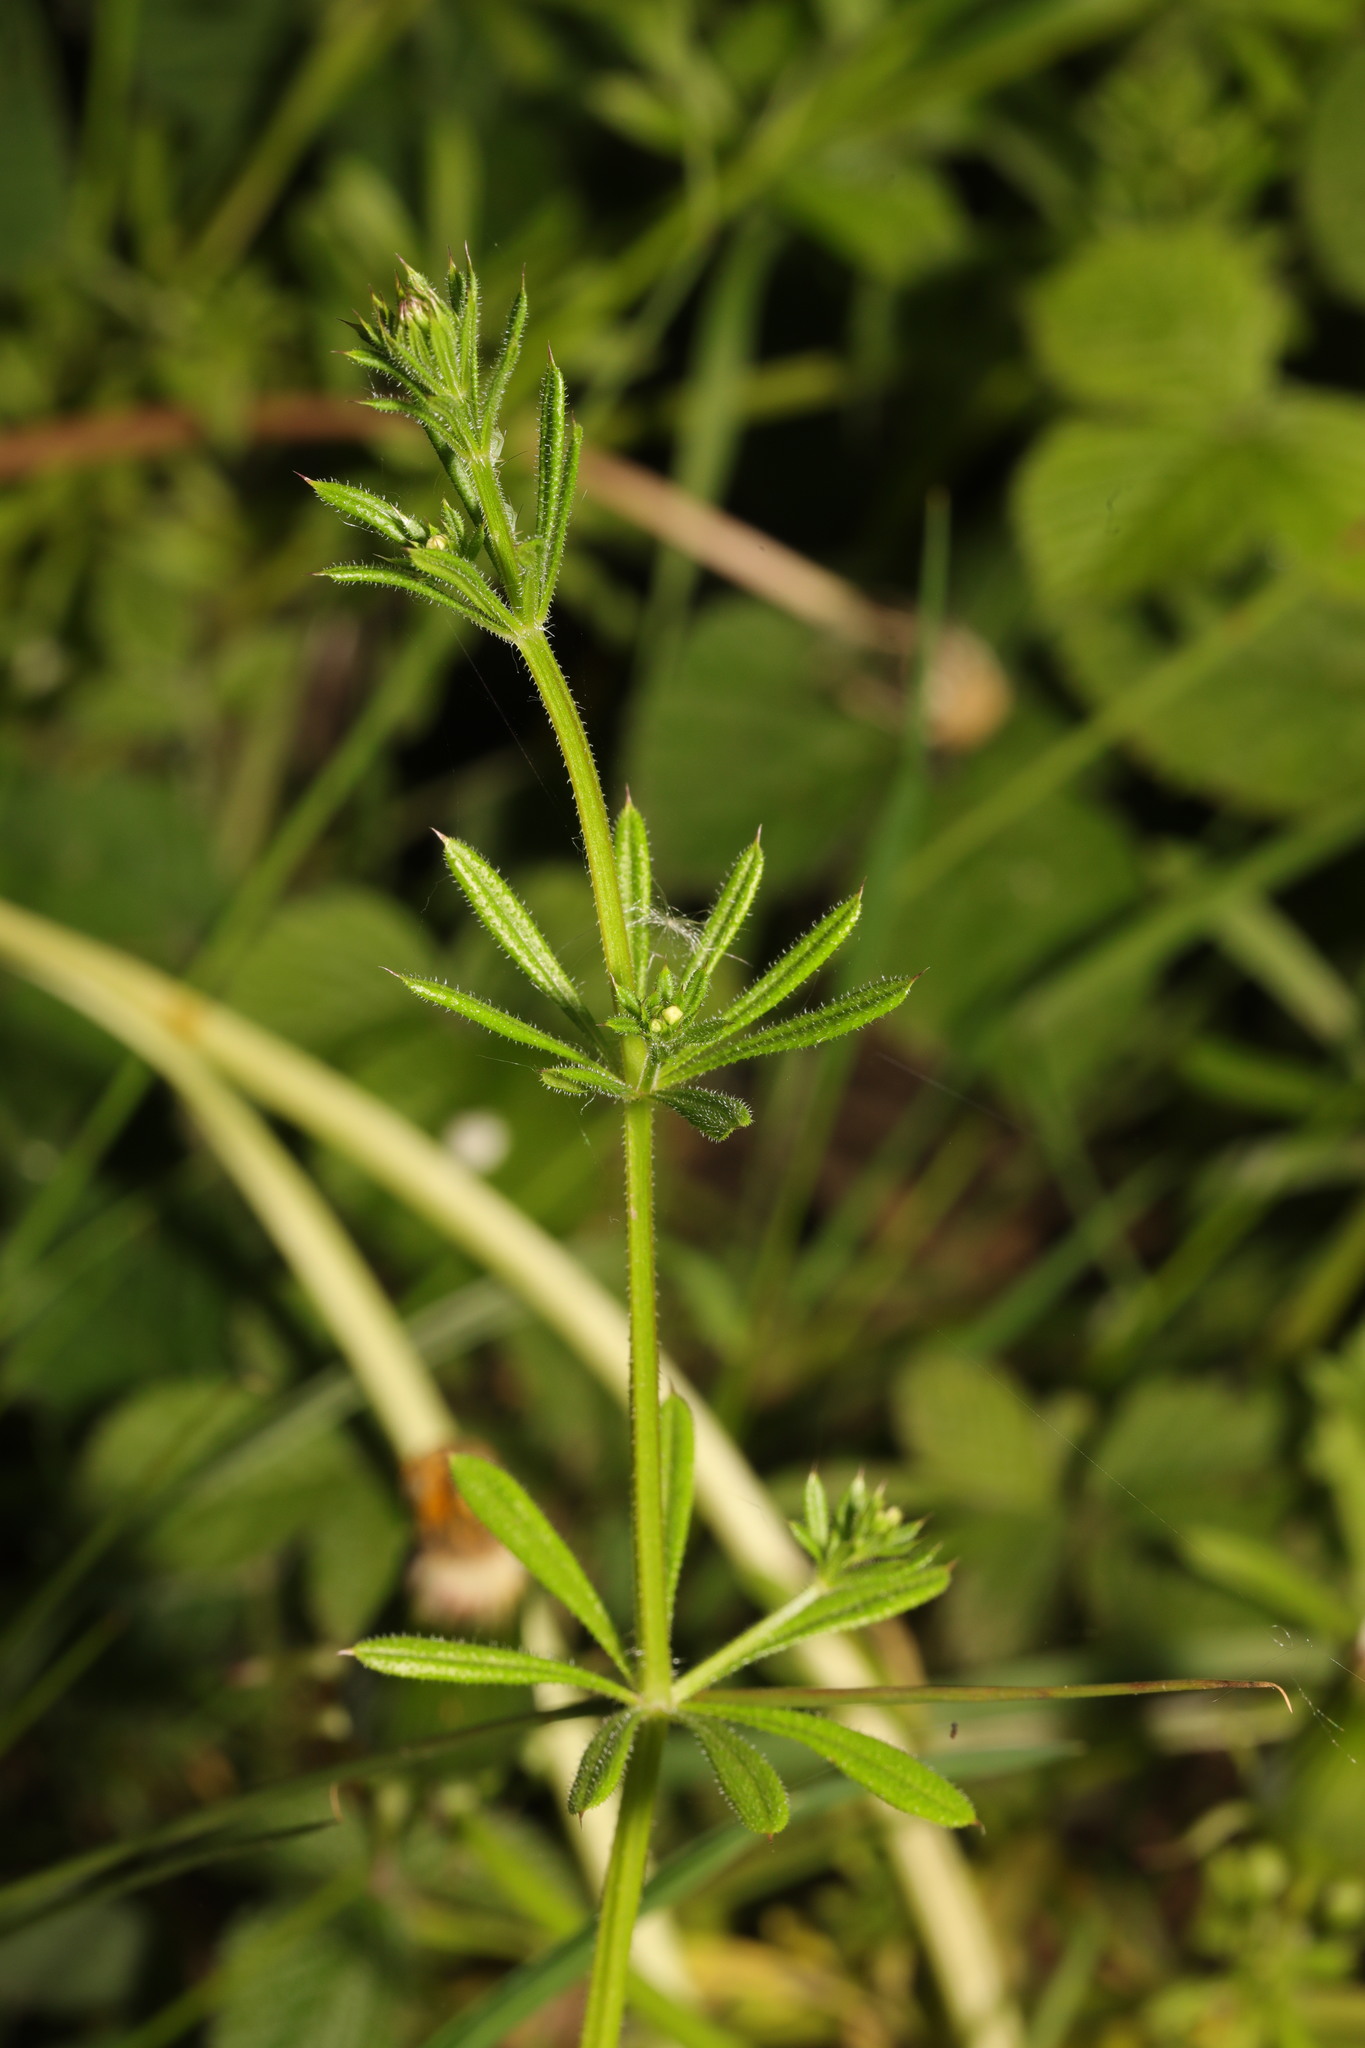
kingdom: Plantae
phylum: Tracheophyta
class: Magnoliopsida
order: Gentianales
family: Rubiaceae
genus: Galium
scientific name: Galium aparine
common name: Cleavers
